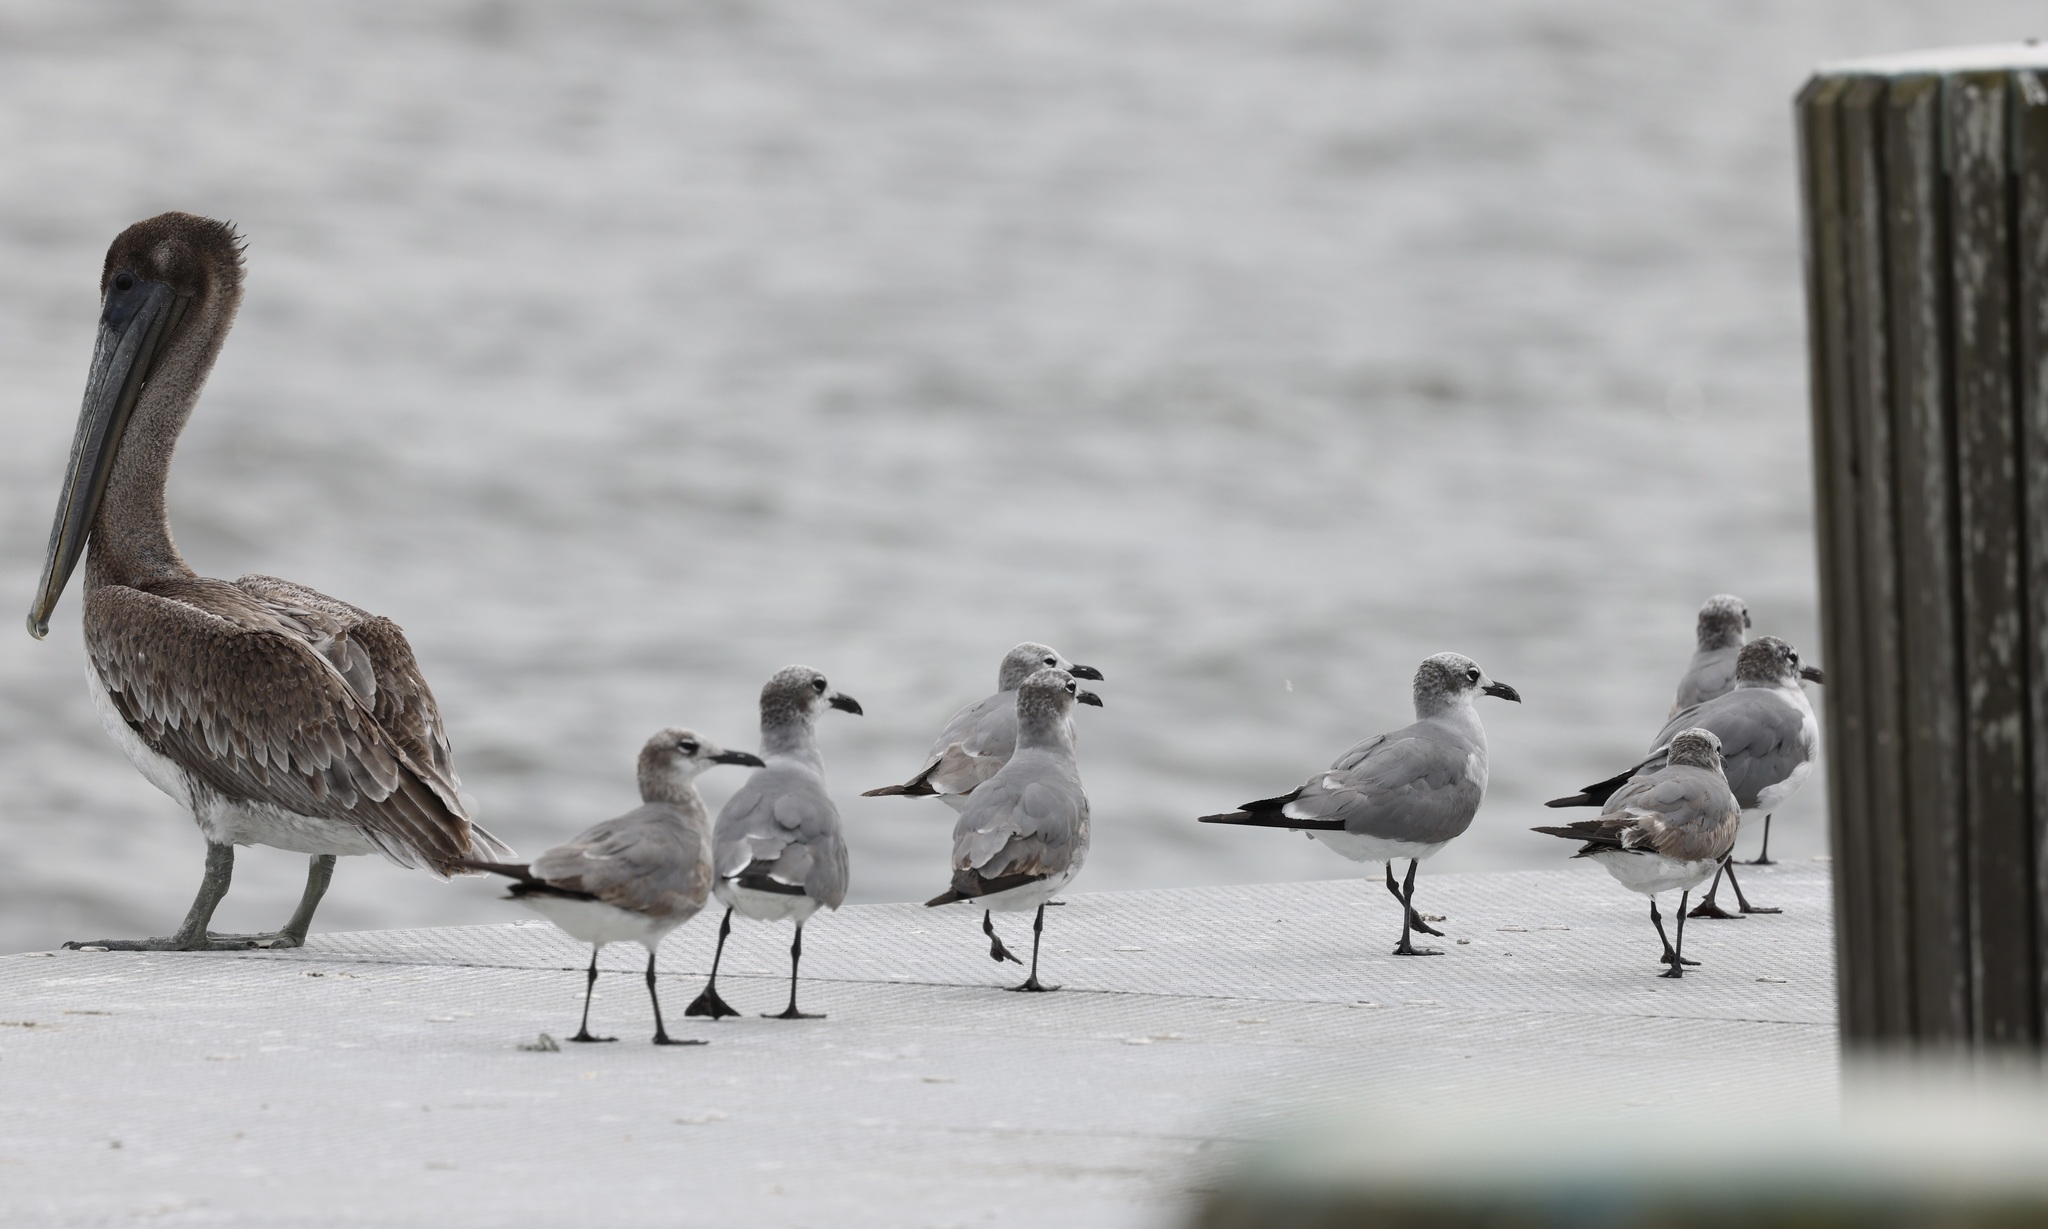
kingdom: Animalia
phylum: Chordata
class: Aves
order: Charadriiformes
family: Laridae
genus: Leucophaeus
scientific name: Leucophaeus atricilla
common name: Laughing gull
